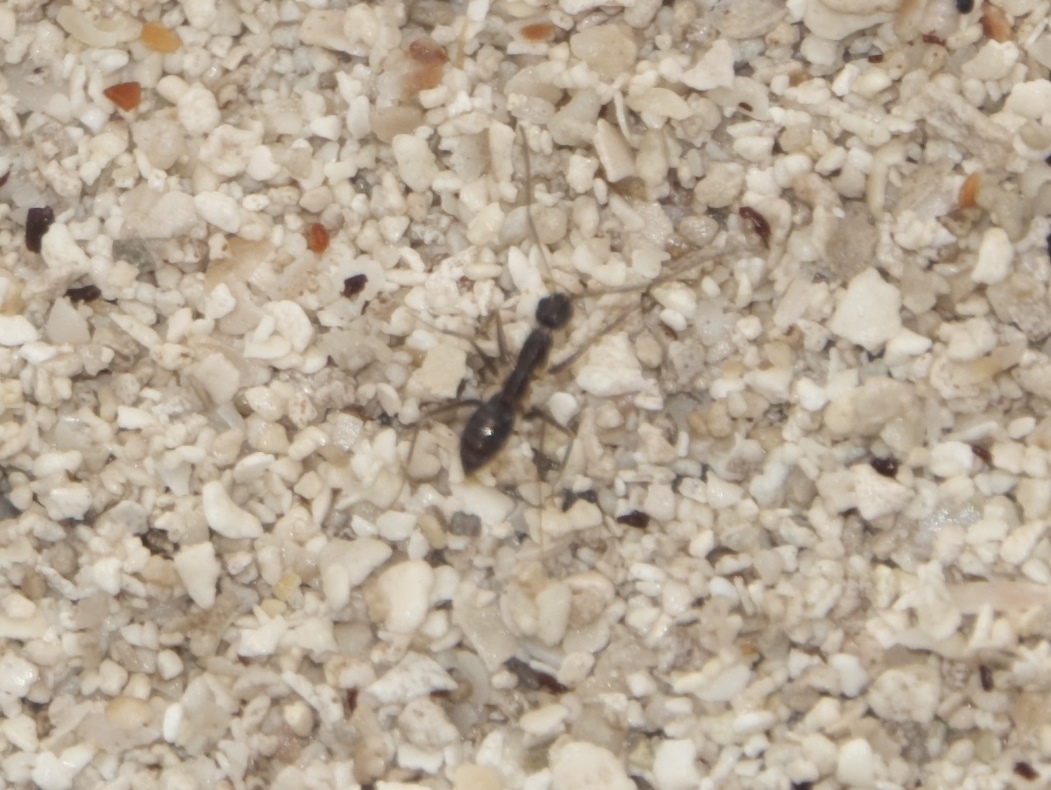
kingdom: Animalia
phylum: Arthropoda
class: Insecta
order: Hymenoptera
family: Formicidae
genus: Paratrechina
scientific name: Paratrechina longicornis
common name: Longhorned crazy ant
